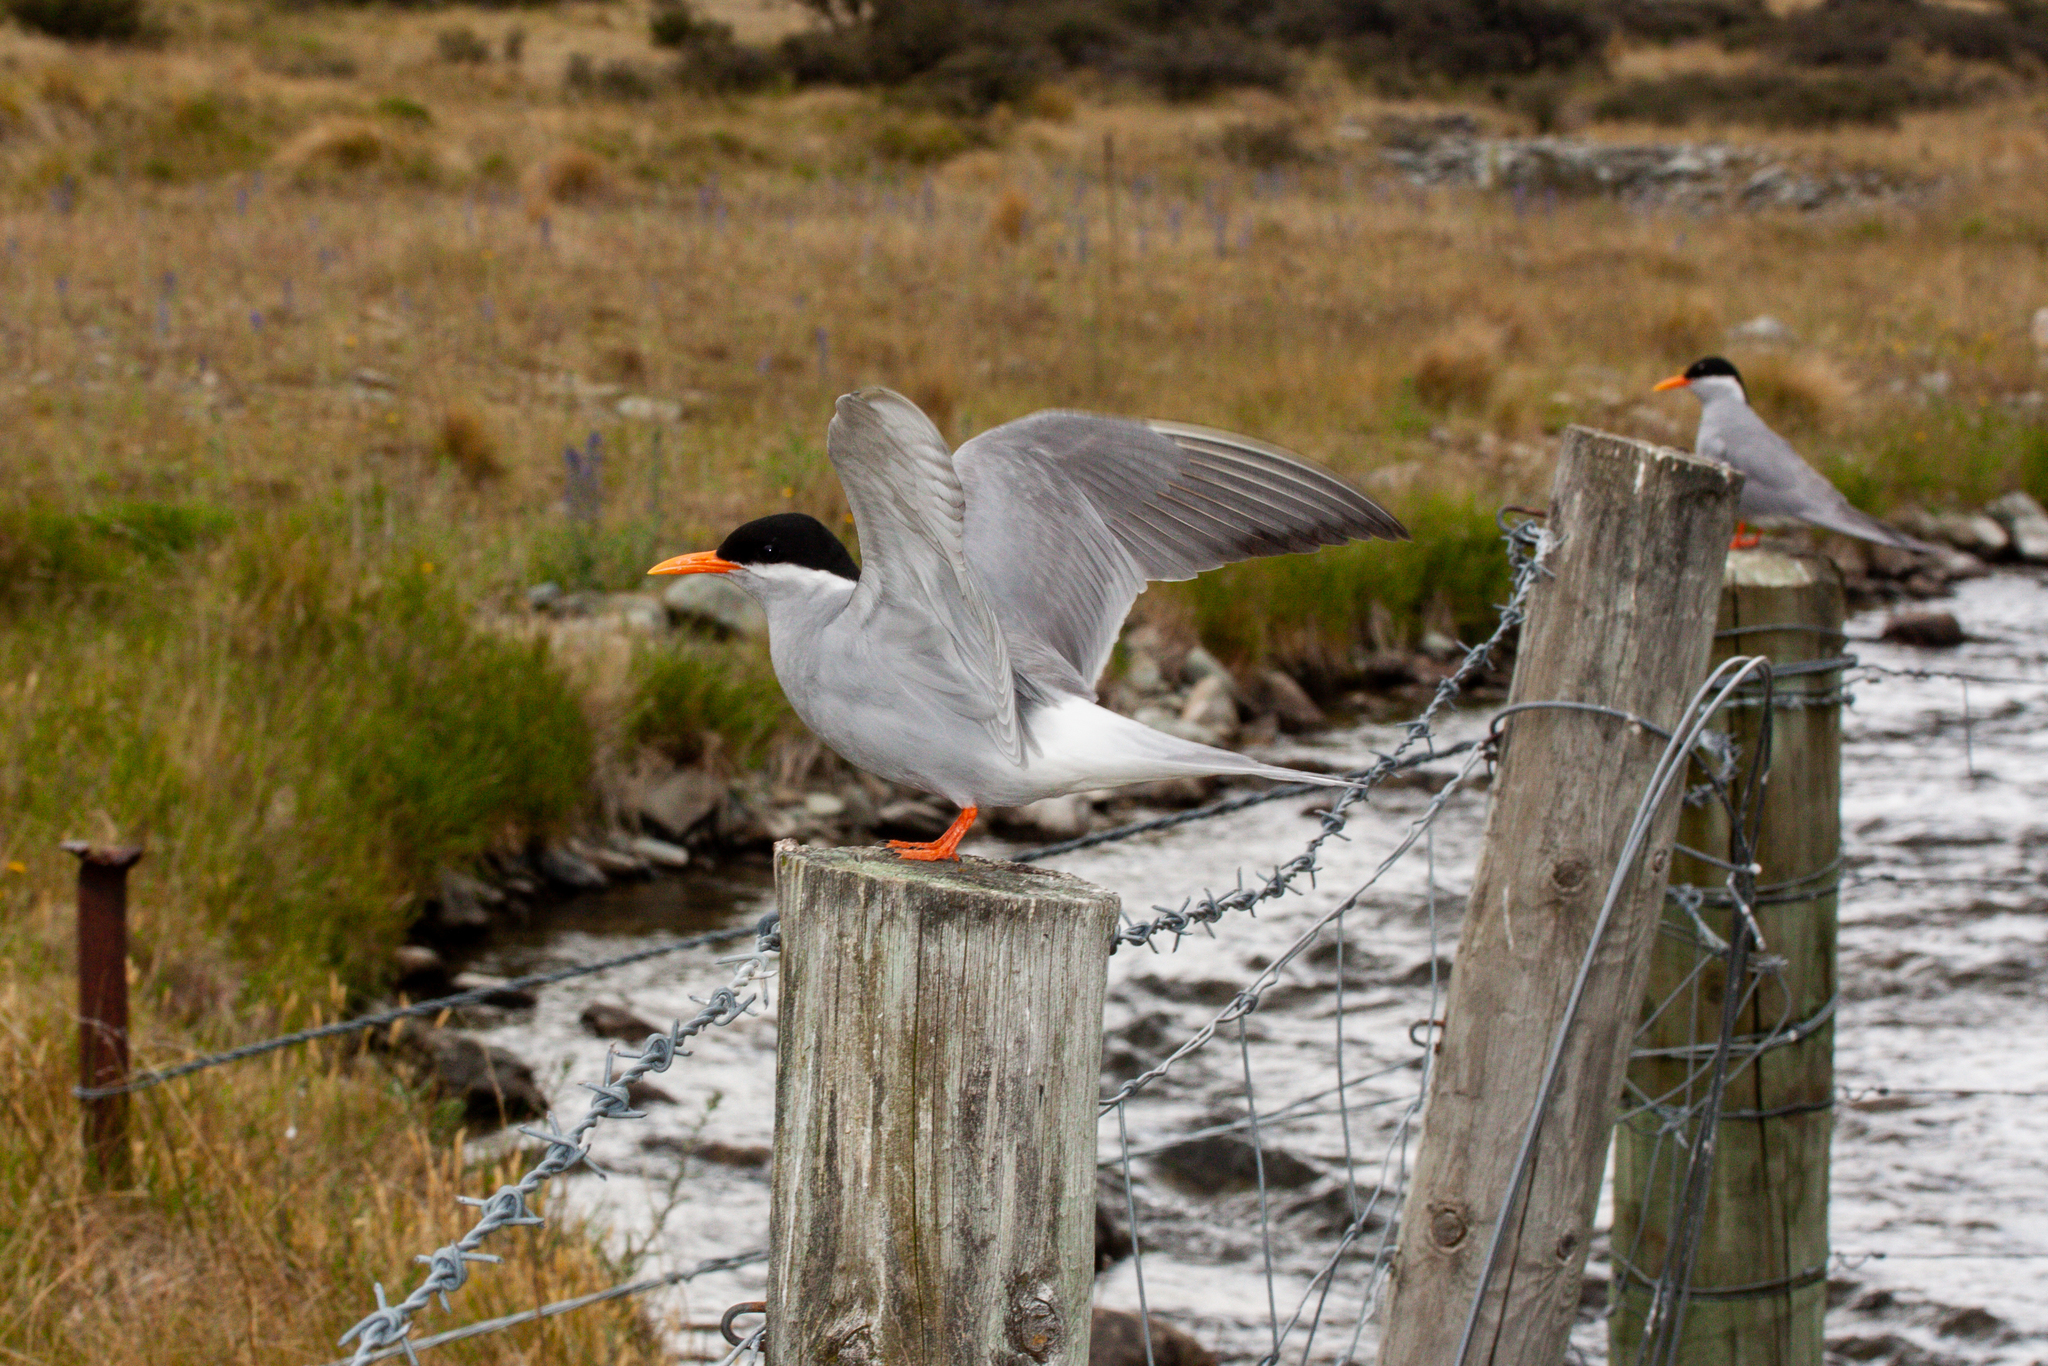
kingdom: Animalia
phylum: Chordata
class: Aves
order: Charadriiformes
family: Laridae
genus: Chlidonias
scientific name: Chlidonias albostriatus
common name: Black-fronted tern
